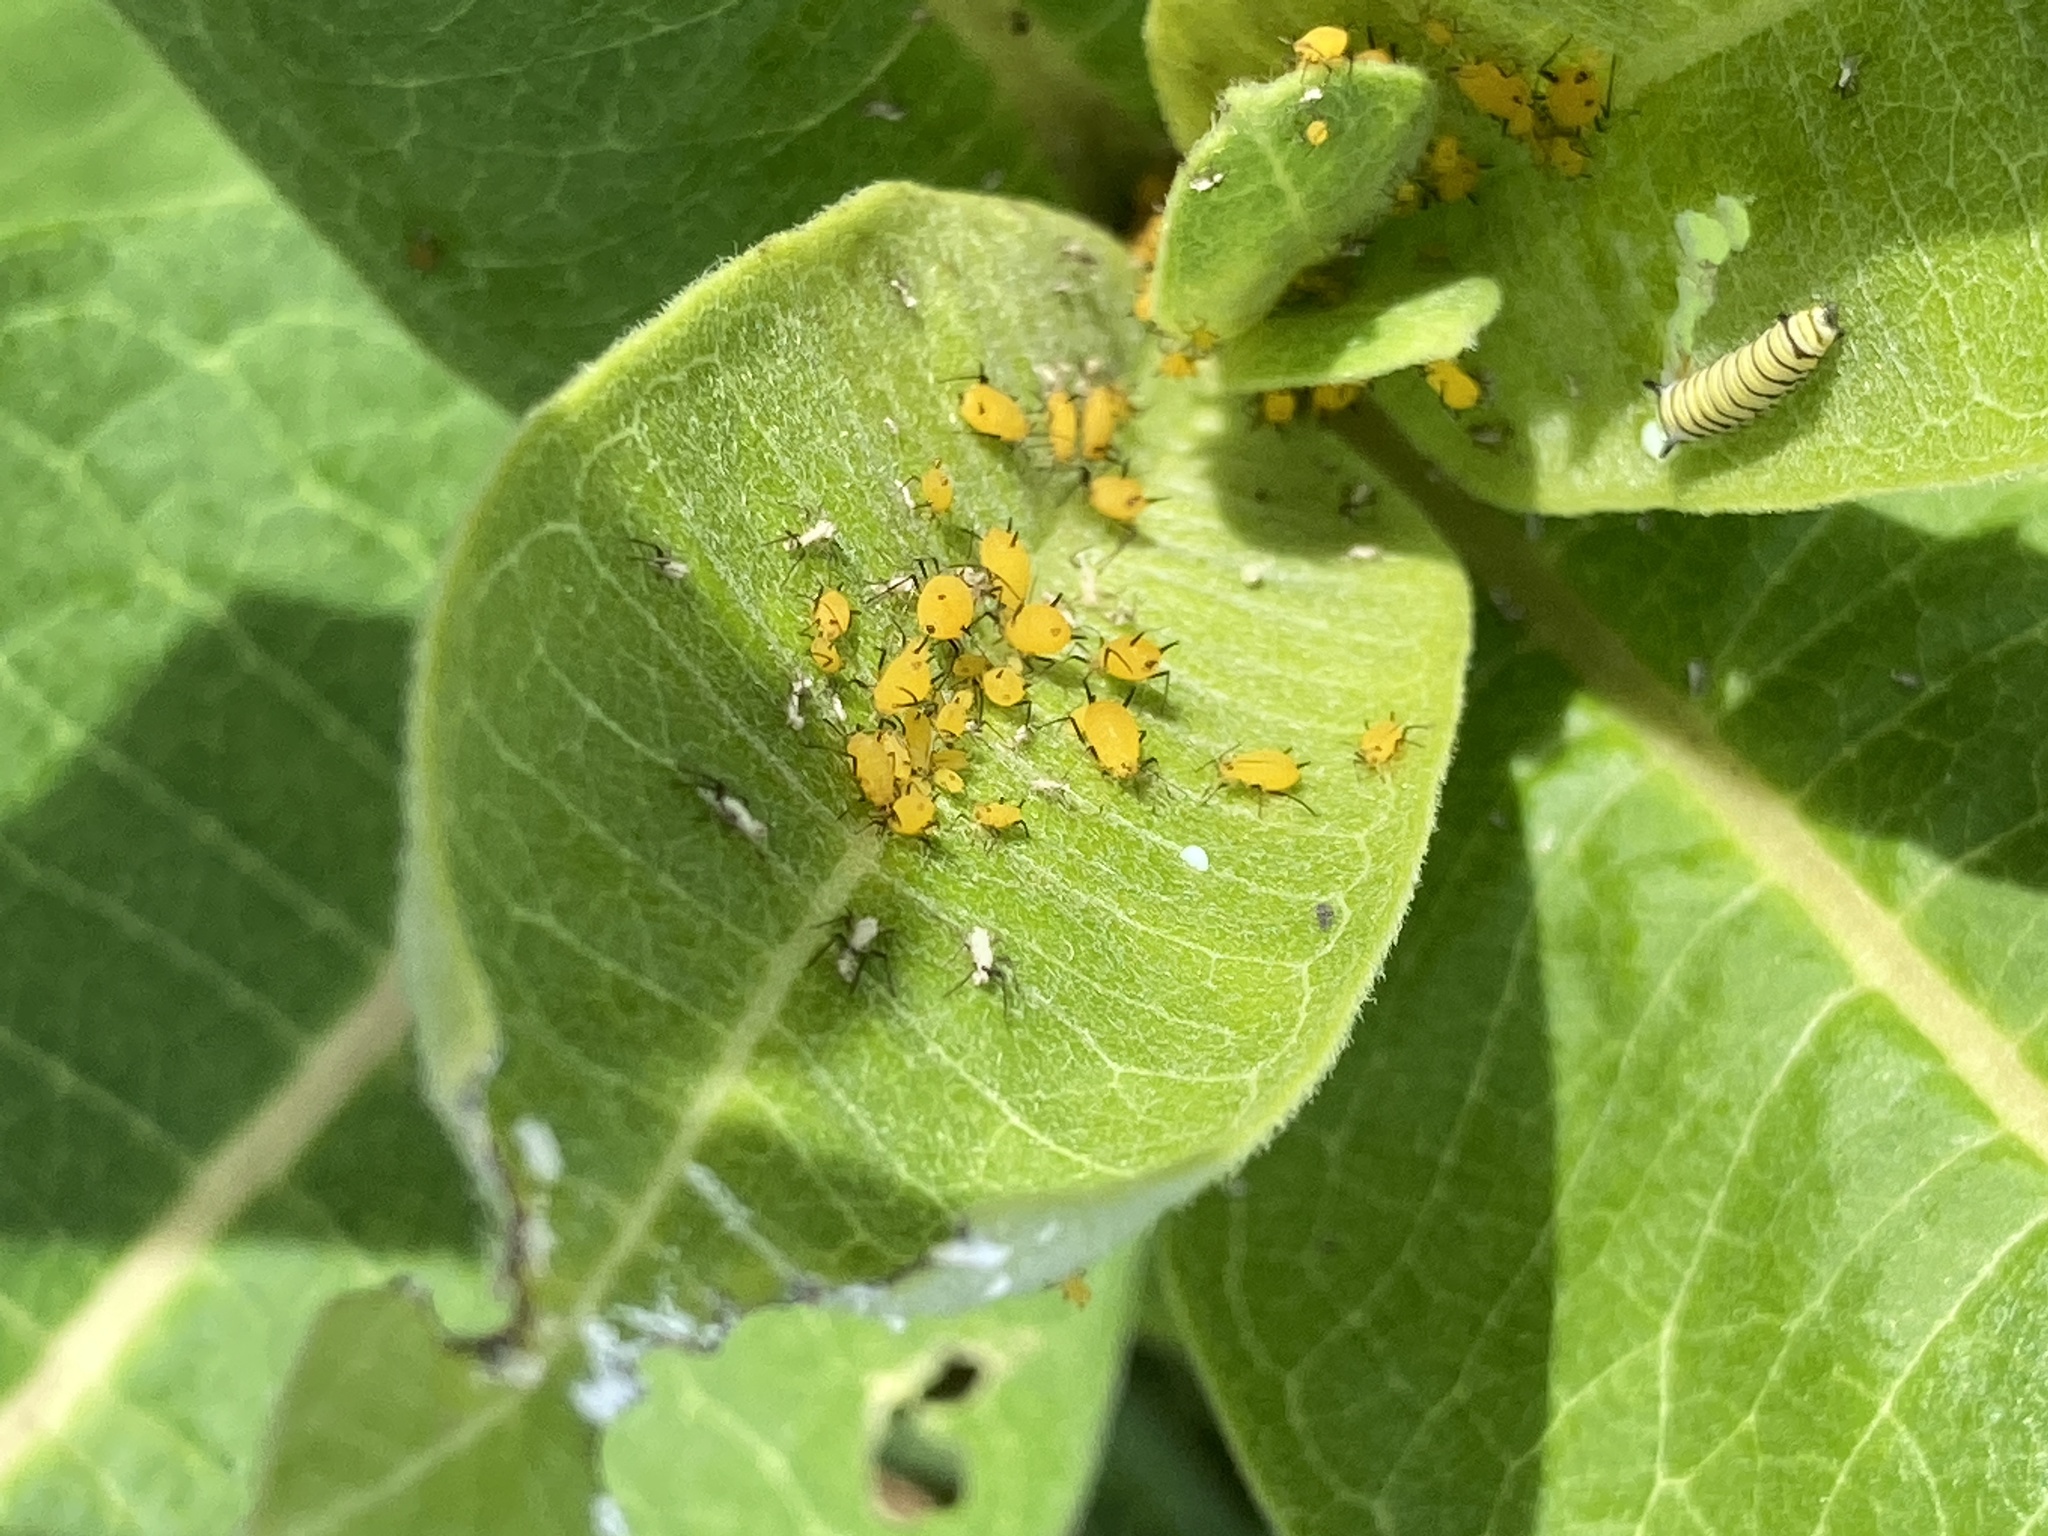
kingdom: Animalia
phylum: Arthropoda
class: Insecta
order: Hemiptera
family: Aphididae
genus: Aphis
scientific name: Aphis nerii
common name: Oleander aphid
